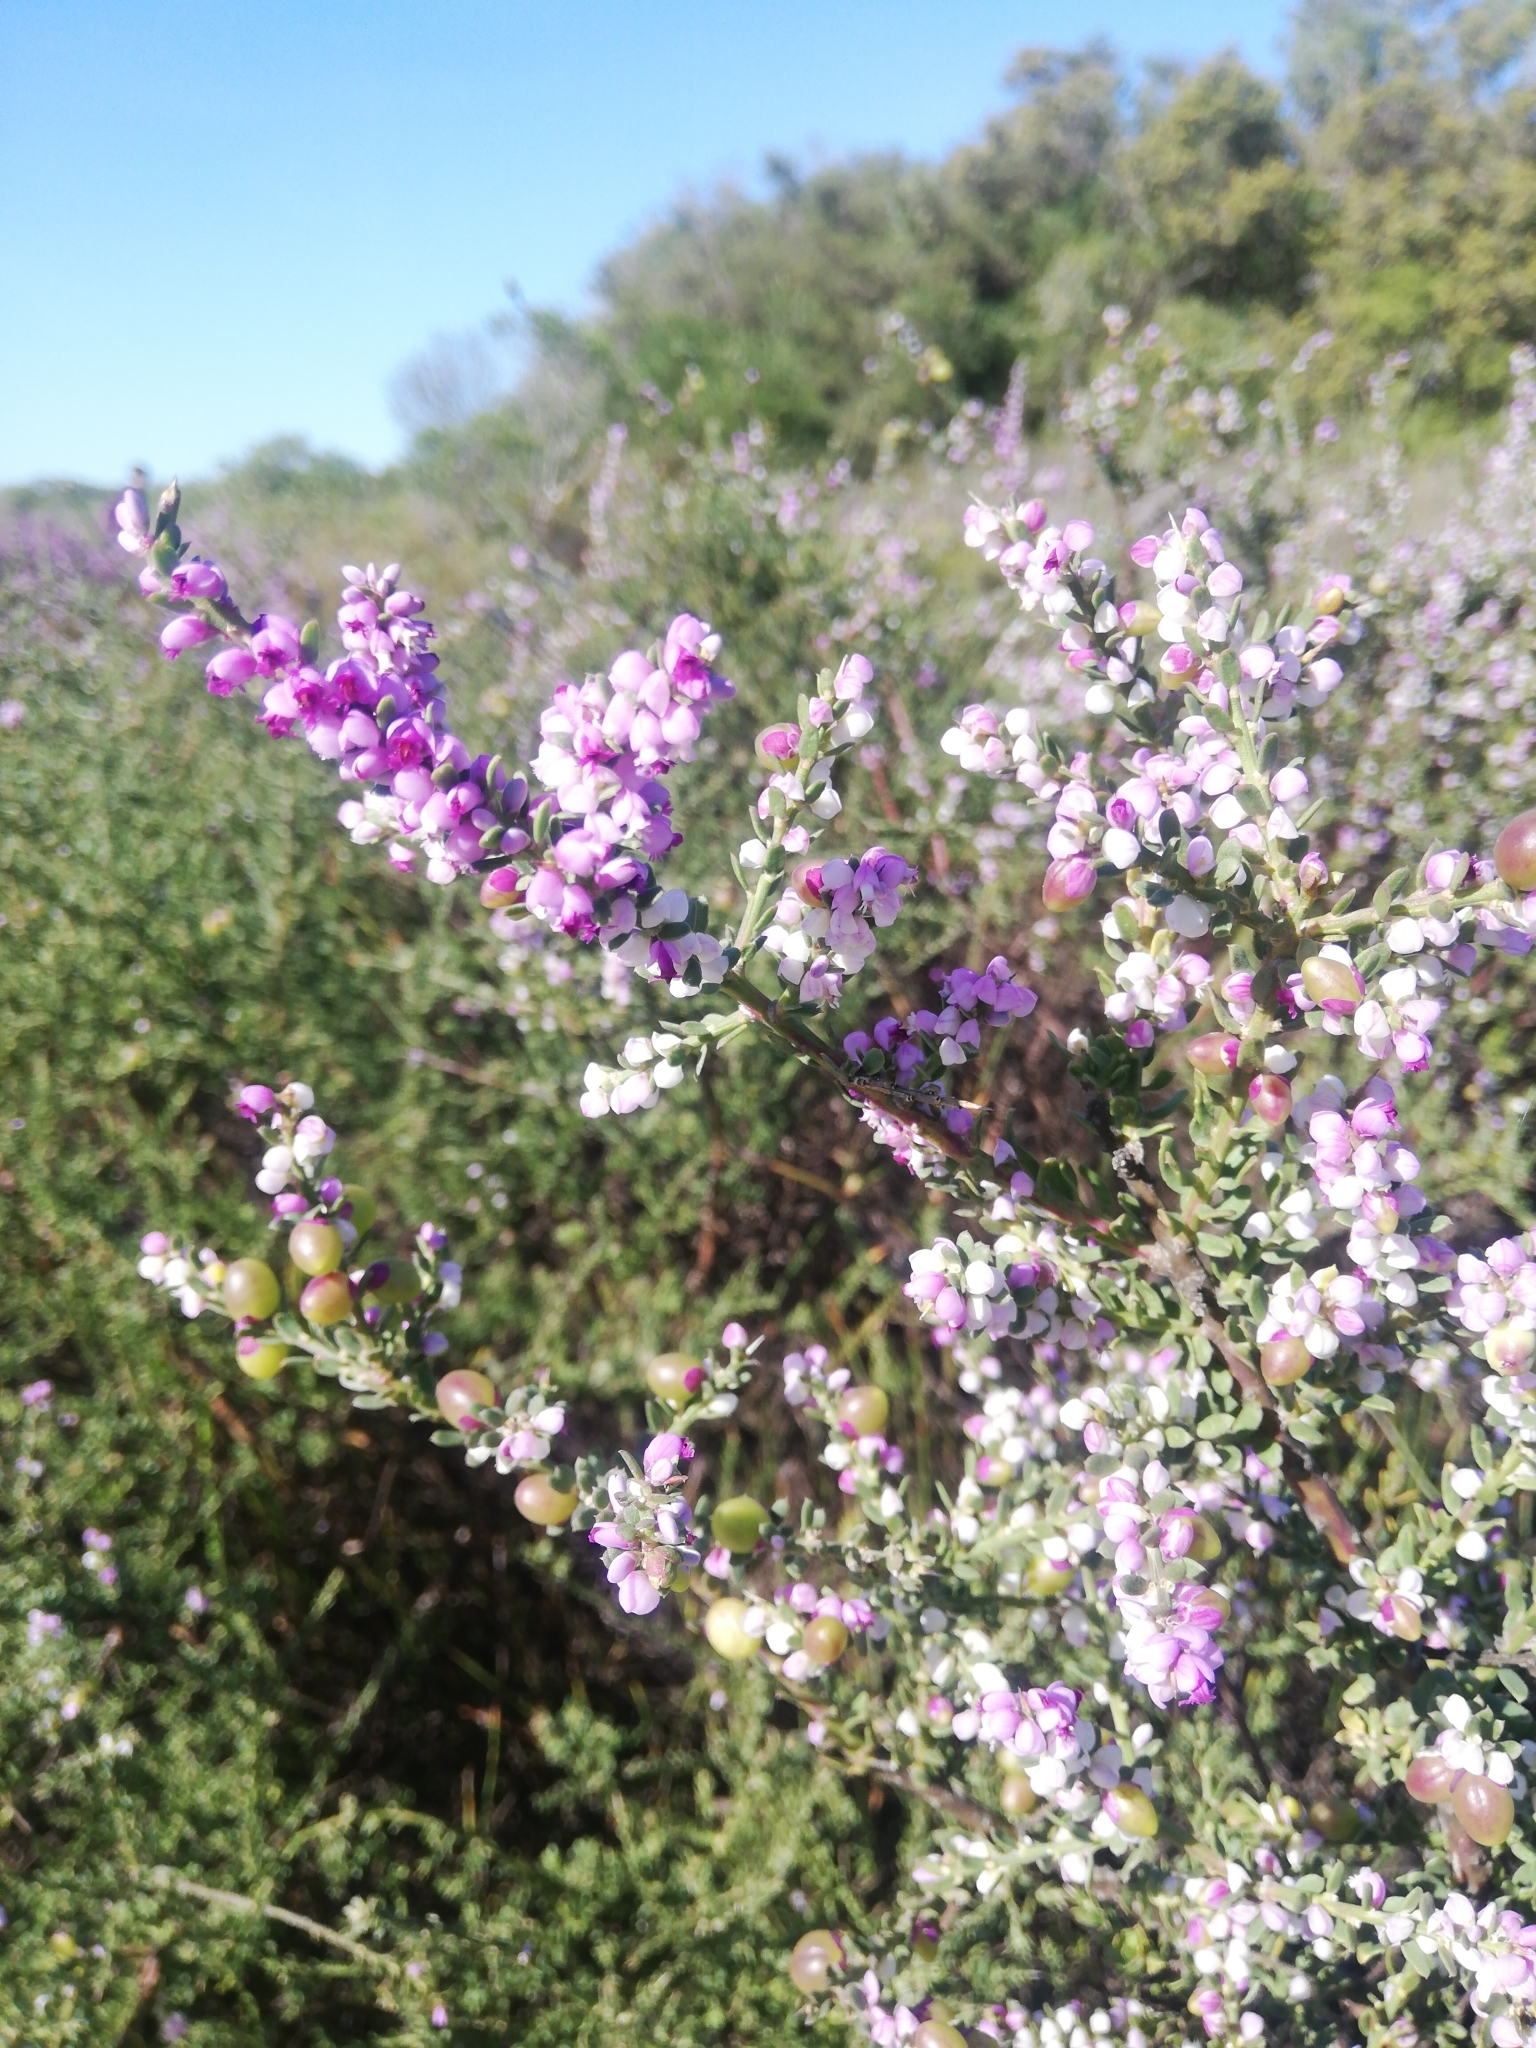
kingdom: Plantae
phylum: Tracheophyta
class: Magnoliopsida
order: Fabales
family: Polygalaceae
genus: Muraltia
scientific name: Muraltia spinosa
